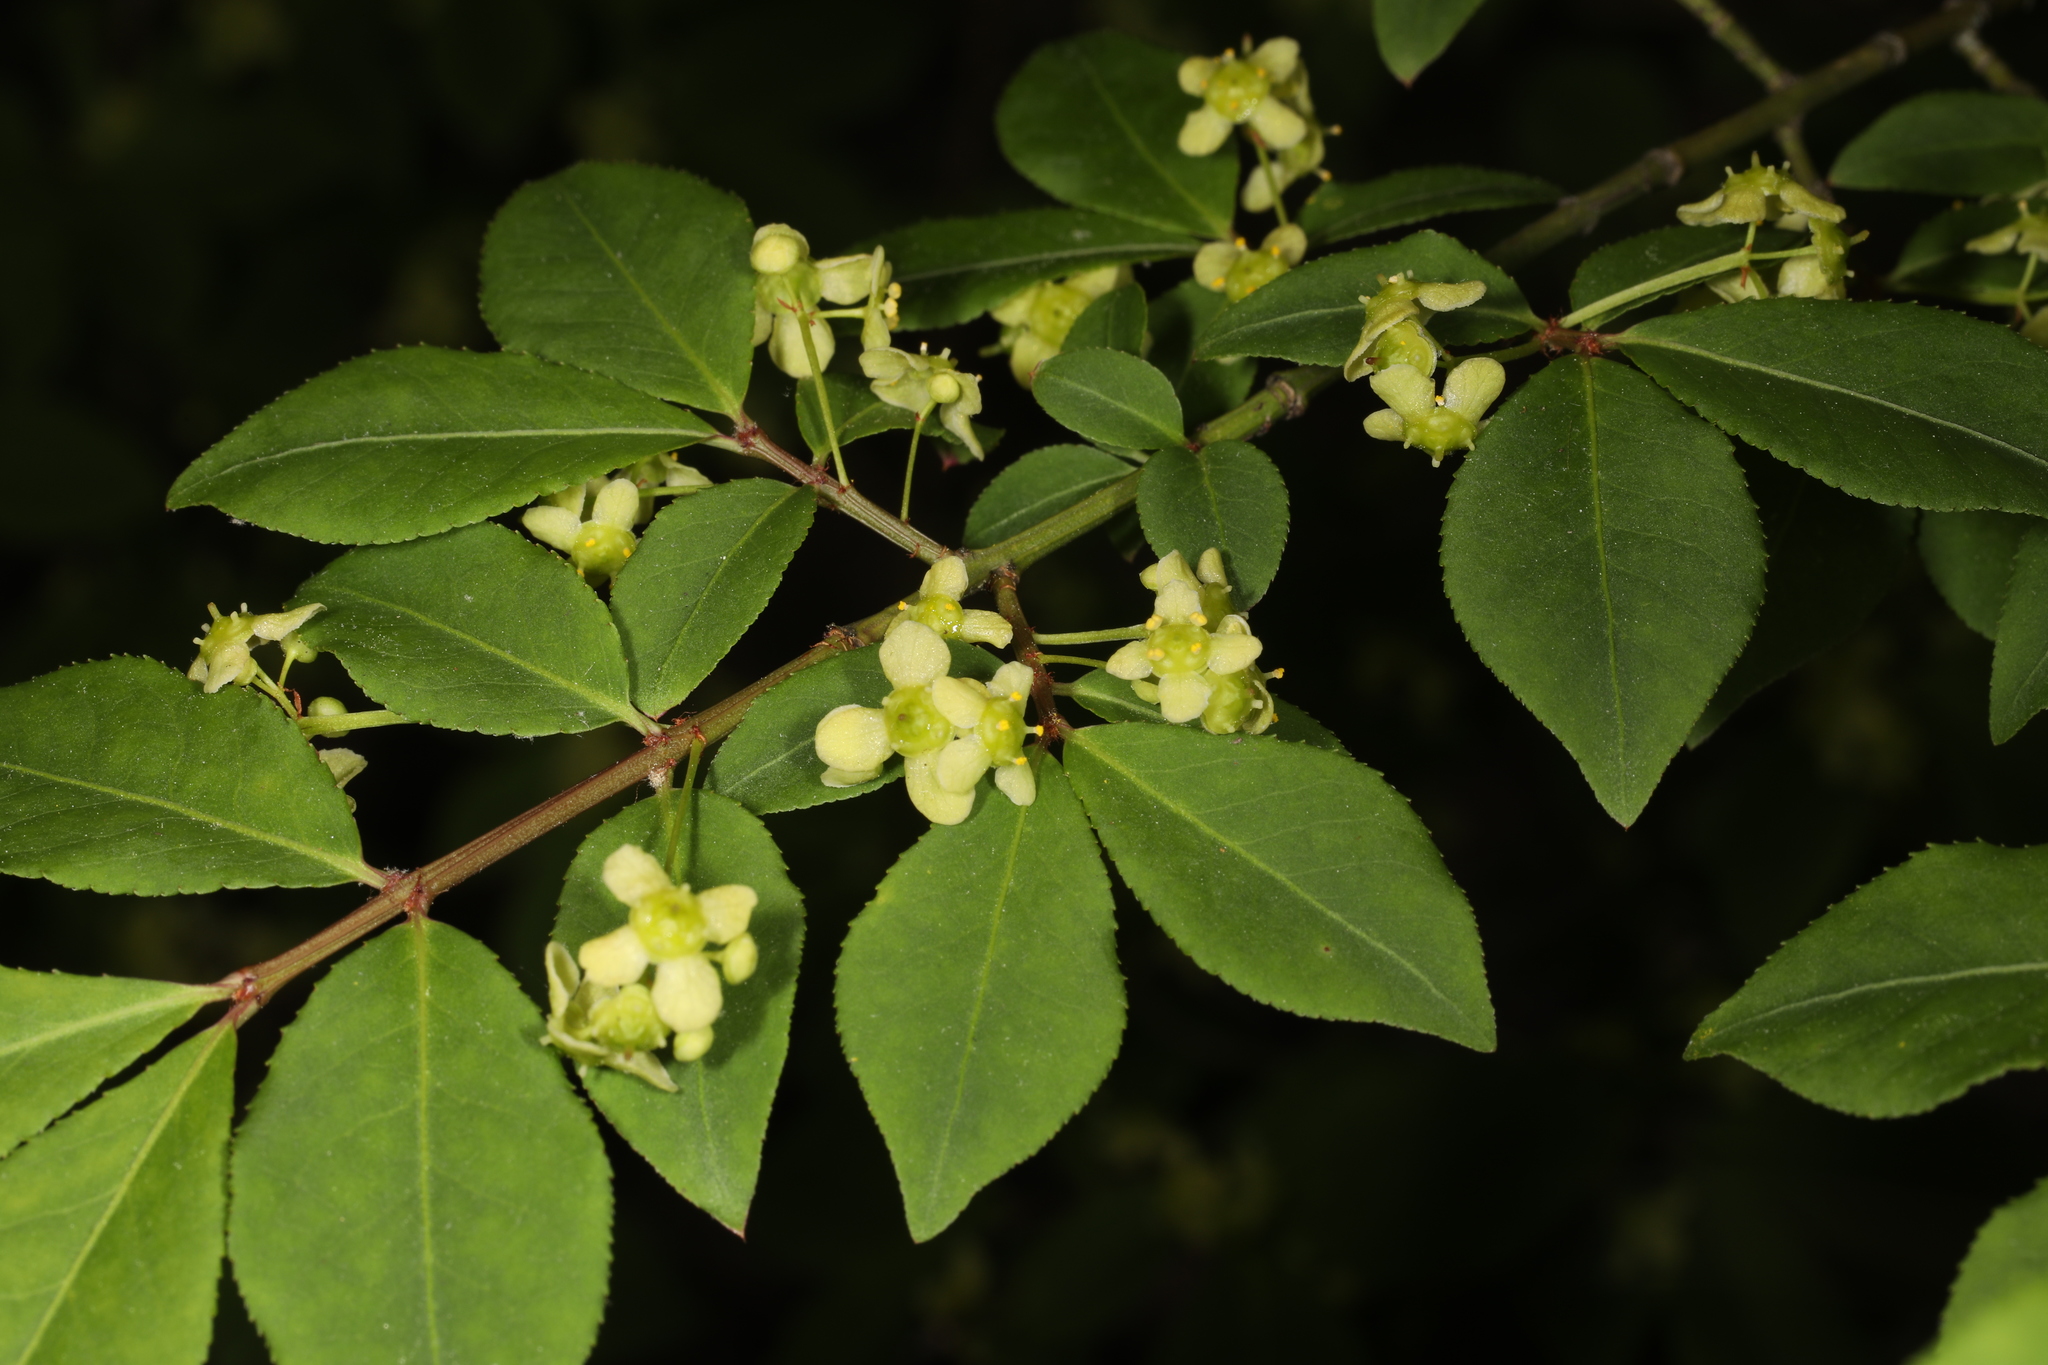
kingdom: Plantae
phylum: Tracheophyta
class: Magnoliopsida
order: Celastrales
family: Celastraceae
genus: Euonymus
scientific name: Euonymus alatus
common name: Winged euonymus
